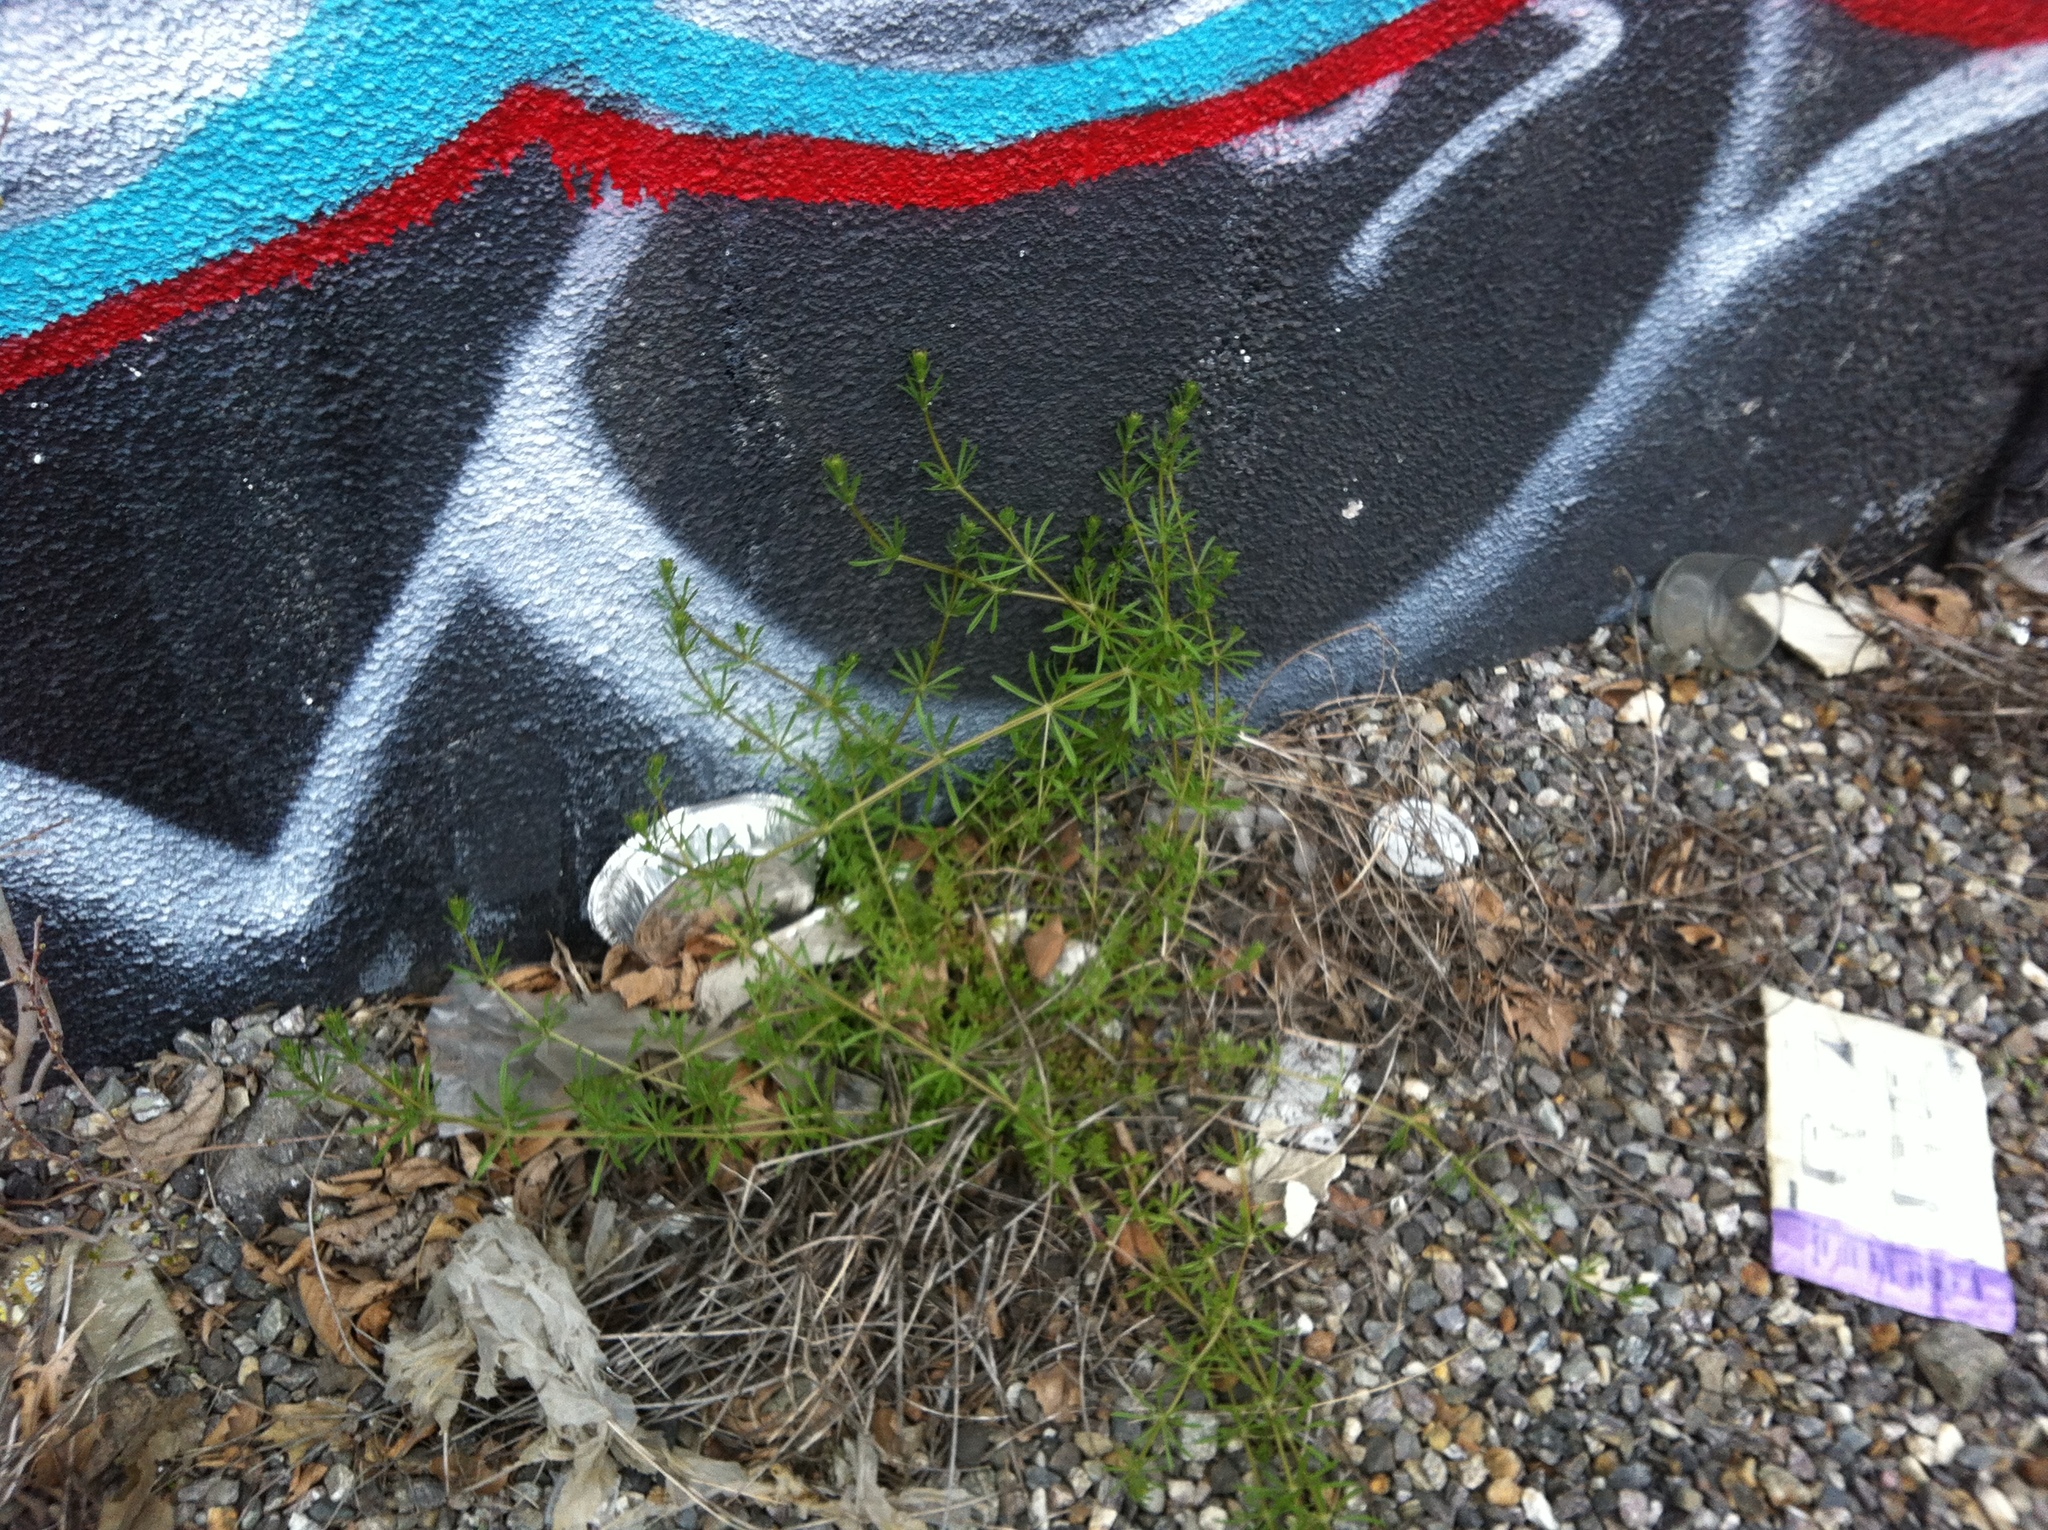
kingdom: Plantae
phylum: Tracheophyta
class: Magnoliopsida
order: Gentianales
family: Rubiaceae
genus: Galium
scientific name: Galium aparine
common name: Cleavers
